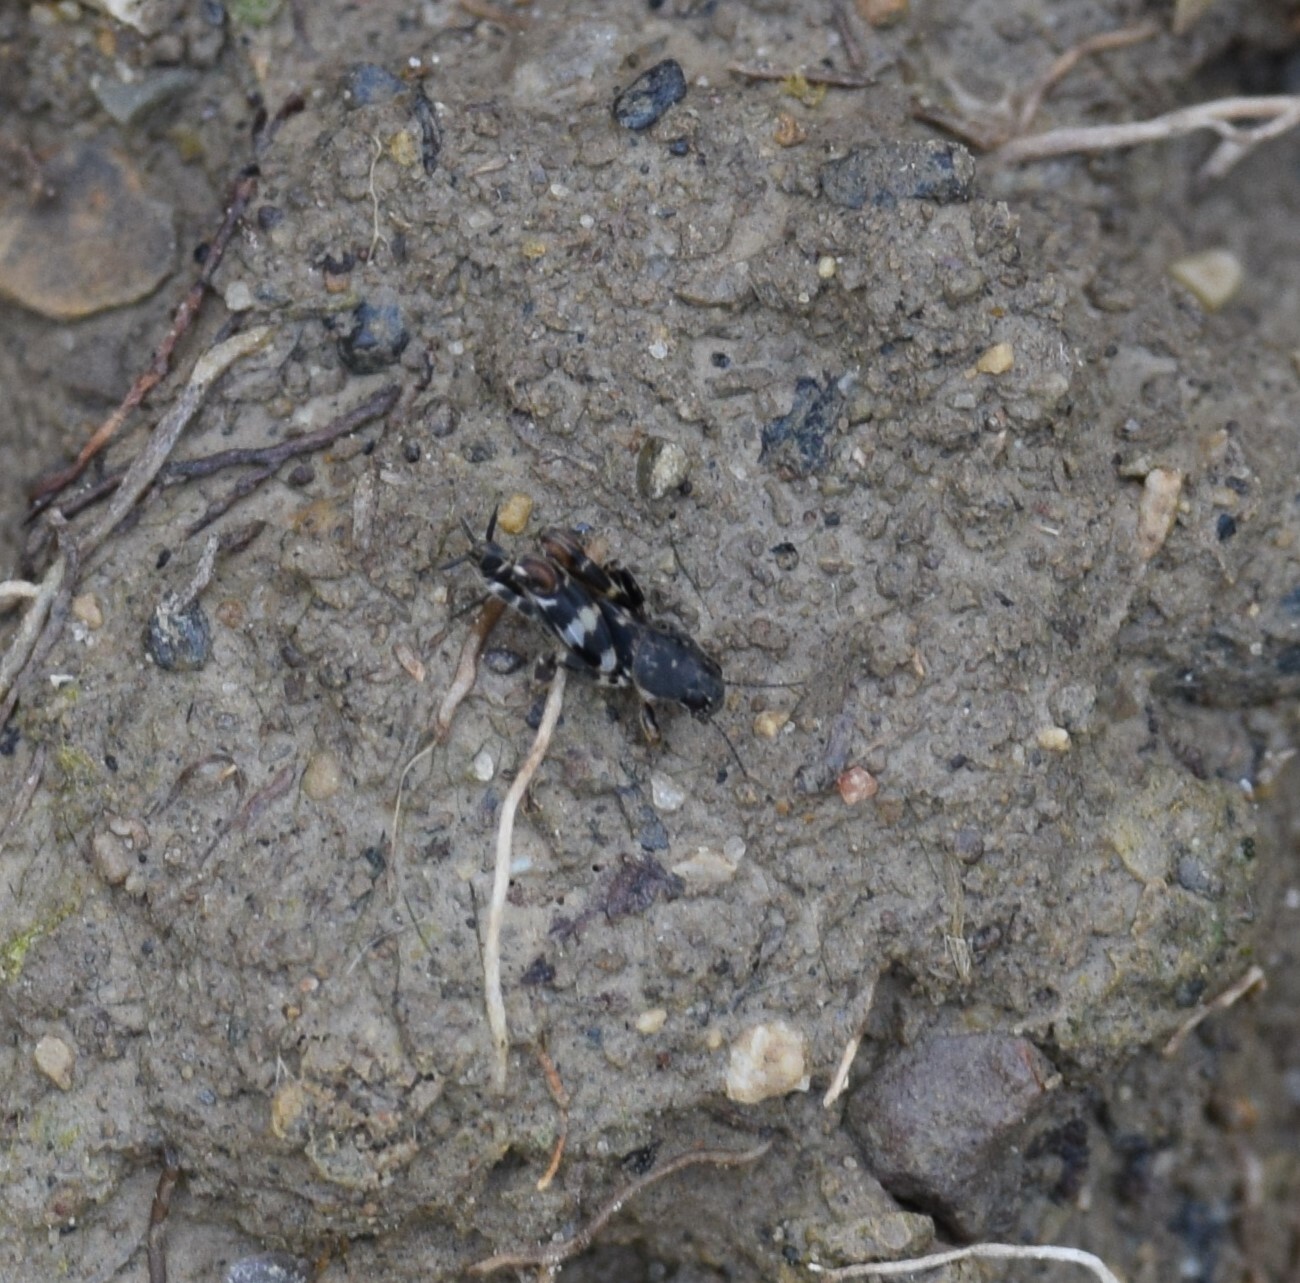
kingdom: Animalia
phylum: Arthropoda
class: Insecta
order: Orthoptera
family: Tridactylidae
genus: Ellipes
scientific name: Ellipes minuta
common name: Minute pygmy locust
